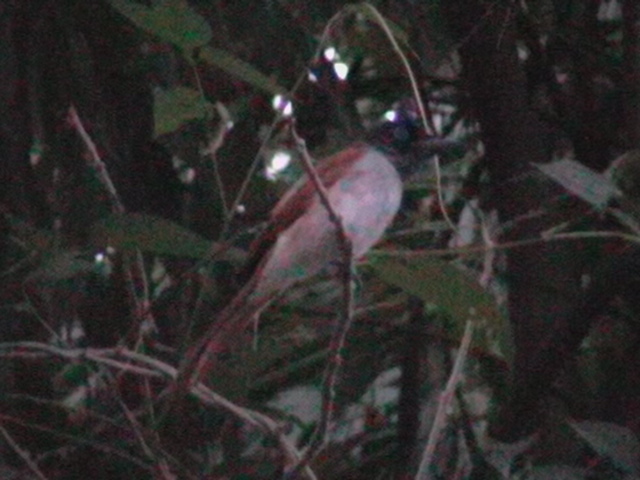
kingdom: Animalia
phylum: Chordata
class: Aves
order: Passeriformes
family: Monarchidae
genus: Terpsiphone
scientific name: Terpsiphone paradisi
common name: Indian paradise flycatcher
